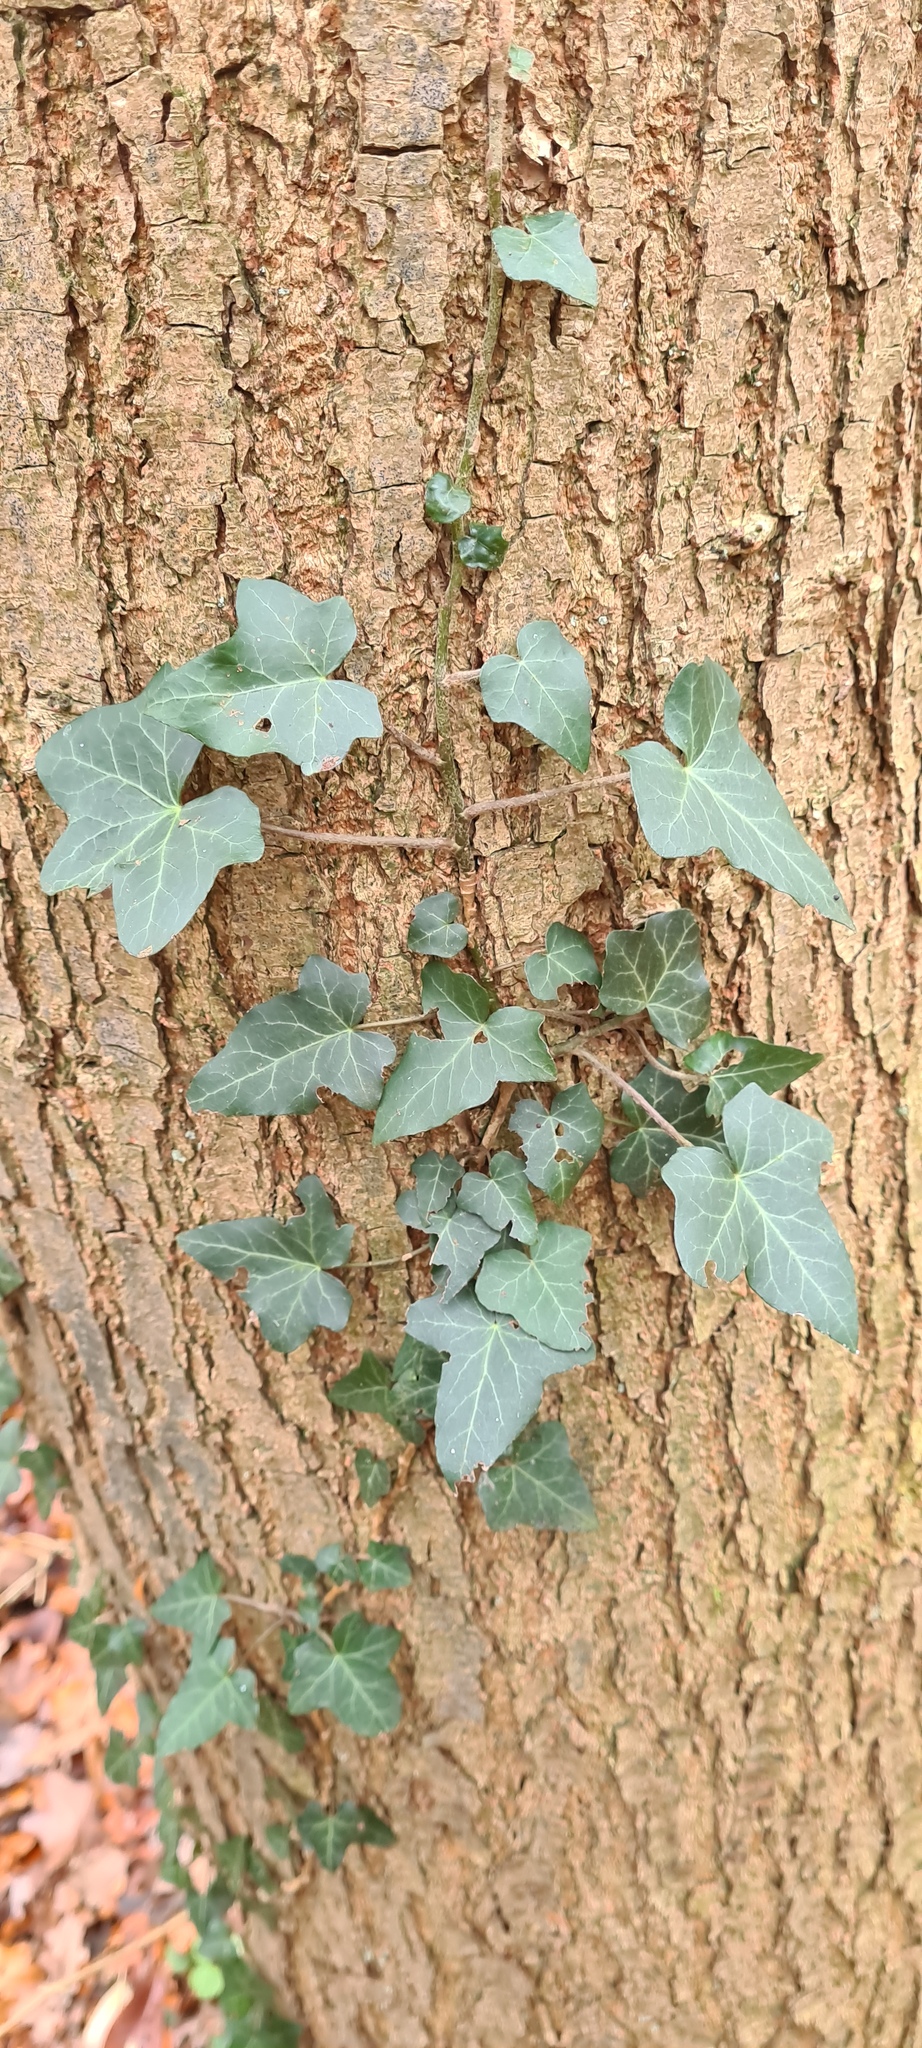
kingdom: Plantae
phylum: Tracheophyta
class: Magnoliopsida
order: Apiales
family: Araliaceae
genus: Hedera
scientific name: Hedera helix
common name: Ivy
